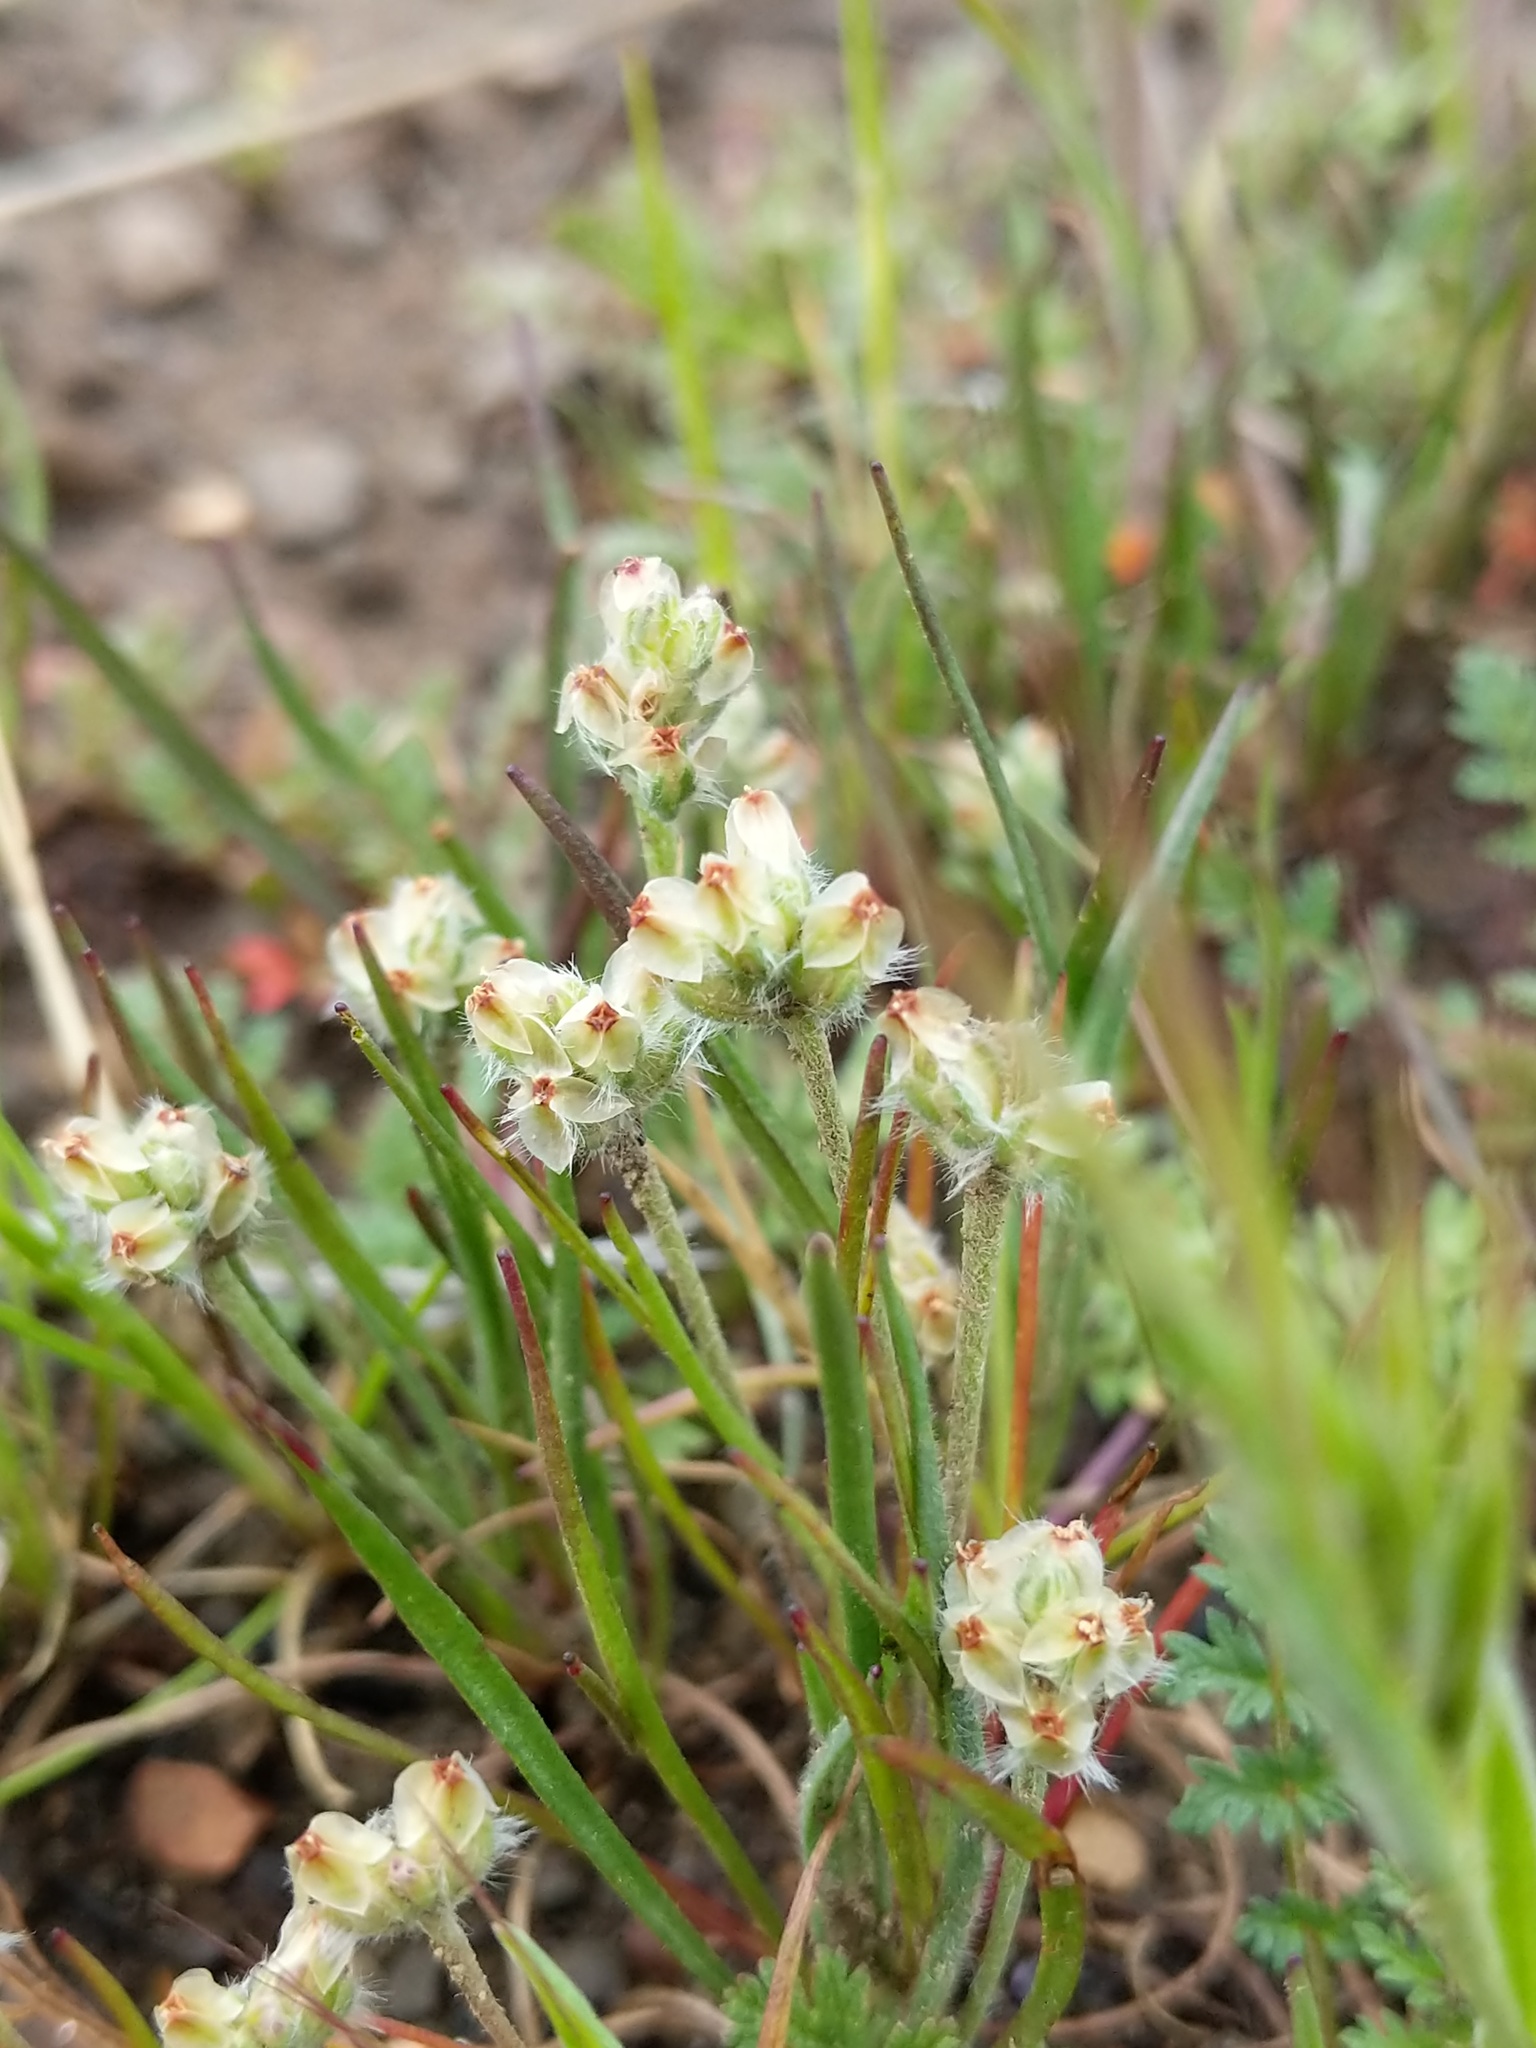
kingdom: Plantae
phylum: Tracheophyta
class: Magnoliopsida
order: Lamiales
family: Plantaginaceae
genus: Plantago
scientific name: Plantago erecta
